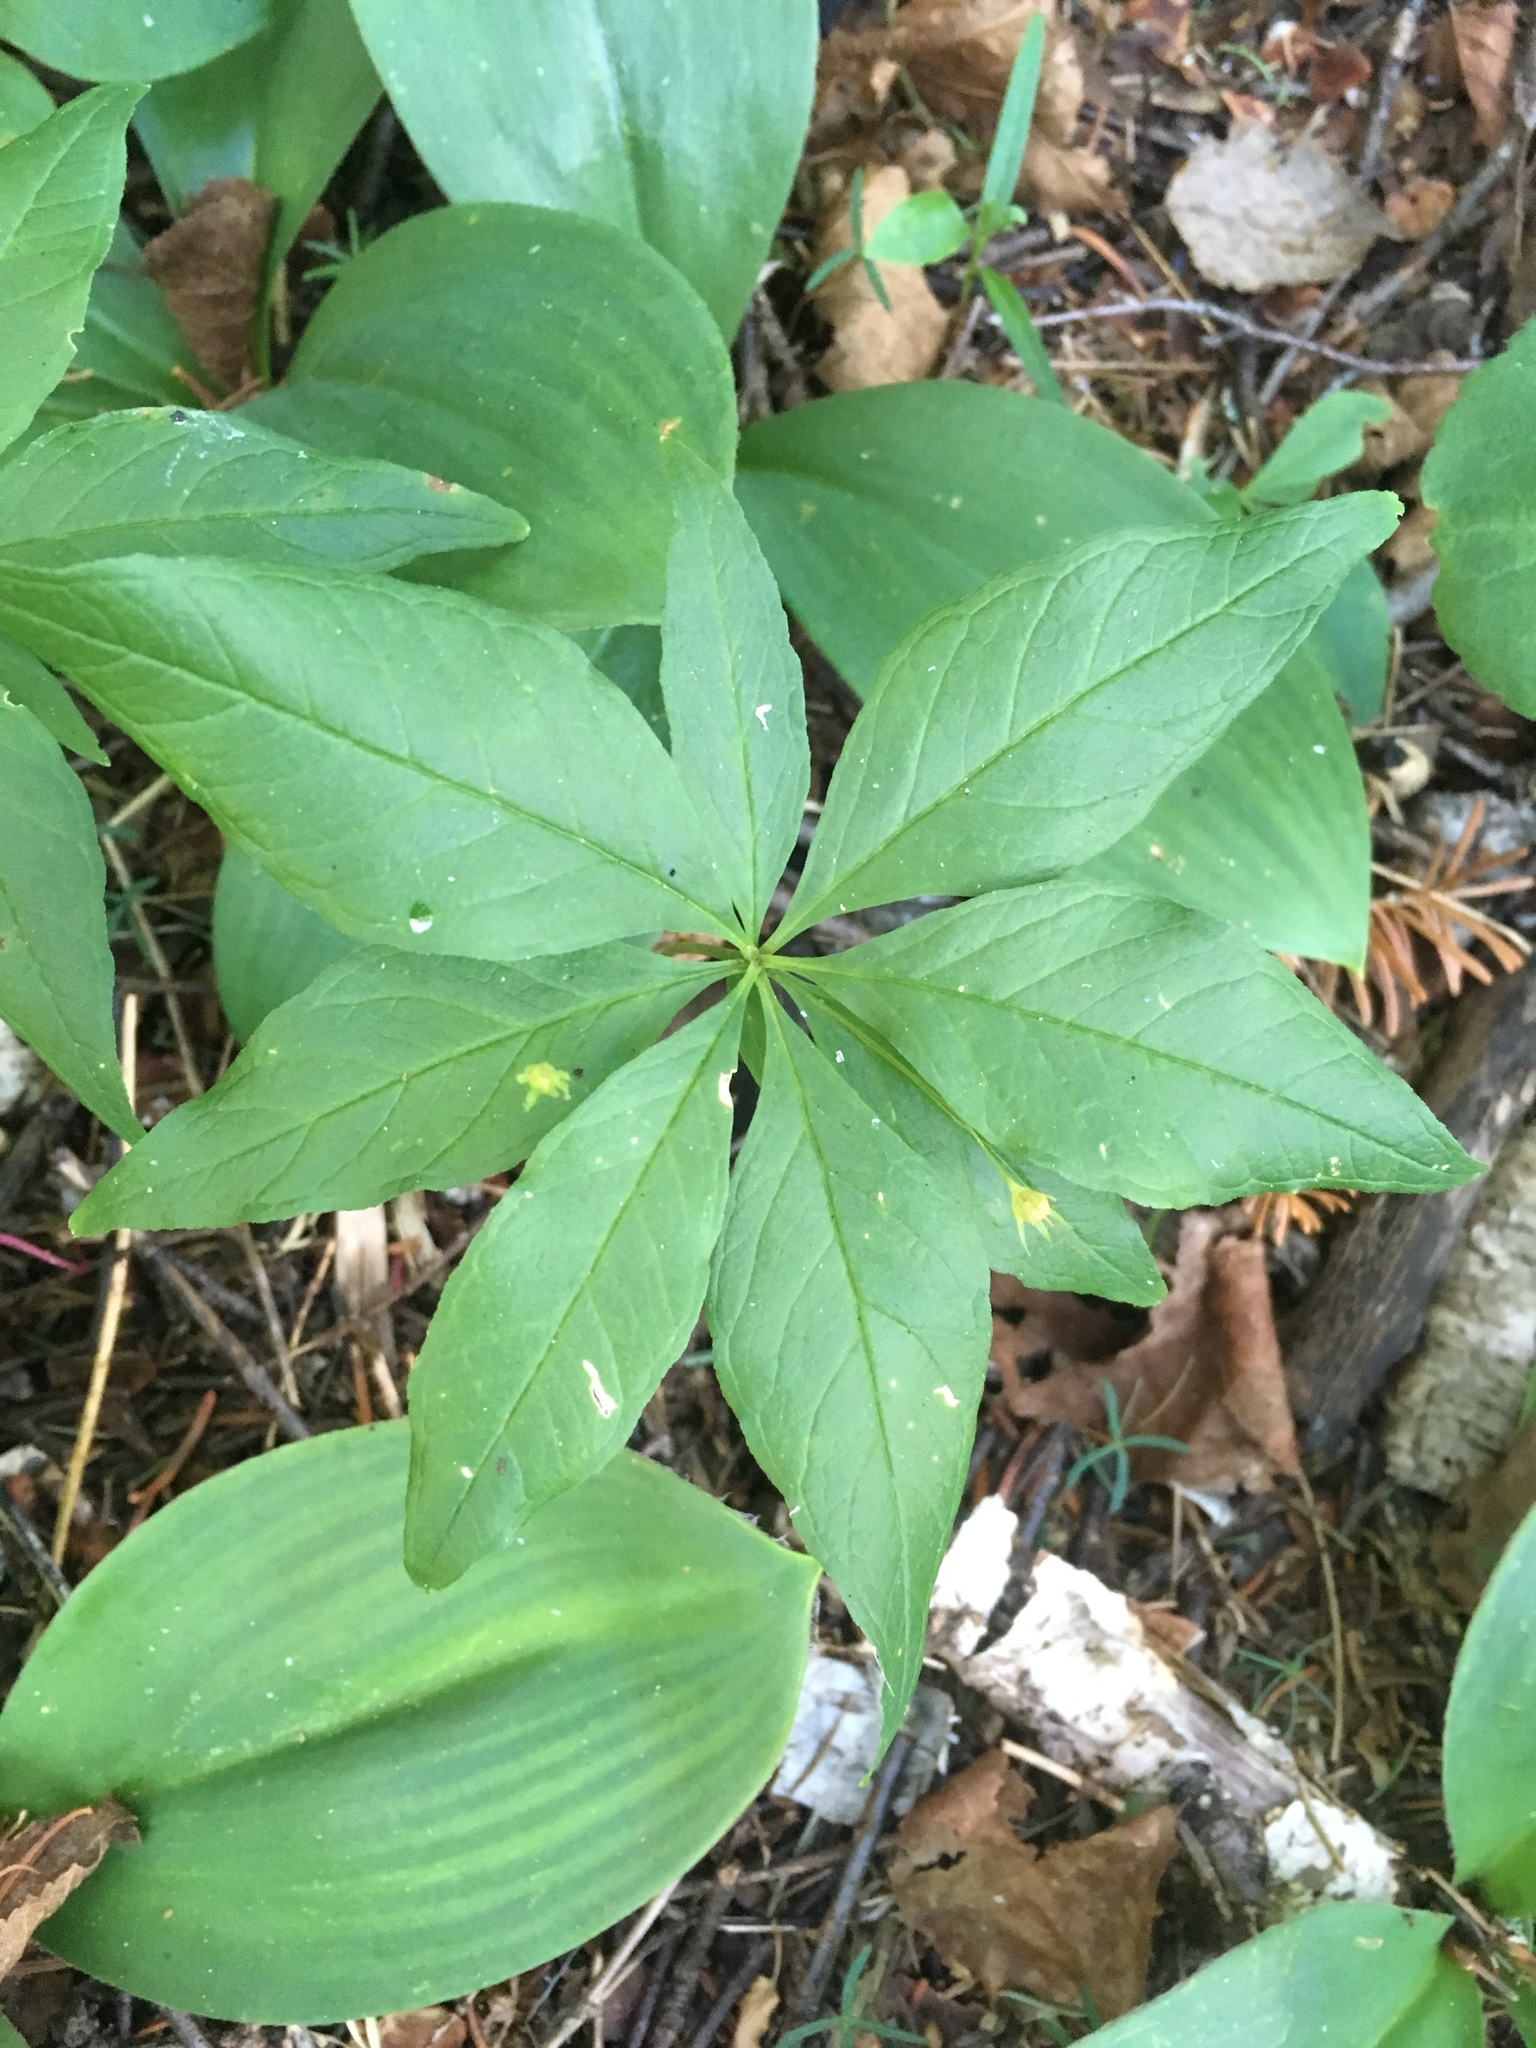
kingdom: Plantae
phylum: Tracheophyta
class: Magnoliopsida
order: Ericales
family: Primulaceae
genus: Lysimachia
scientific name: Lysimachia borealis
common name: American starflower
